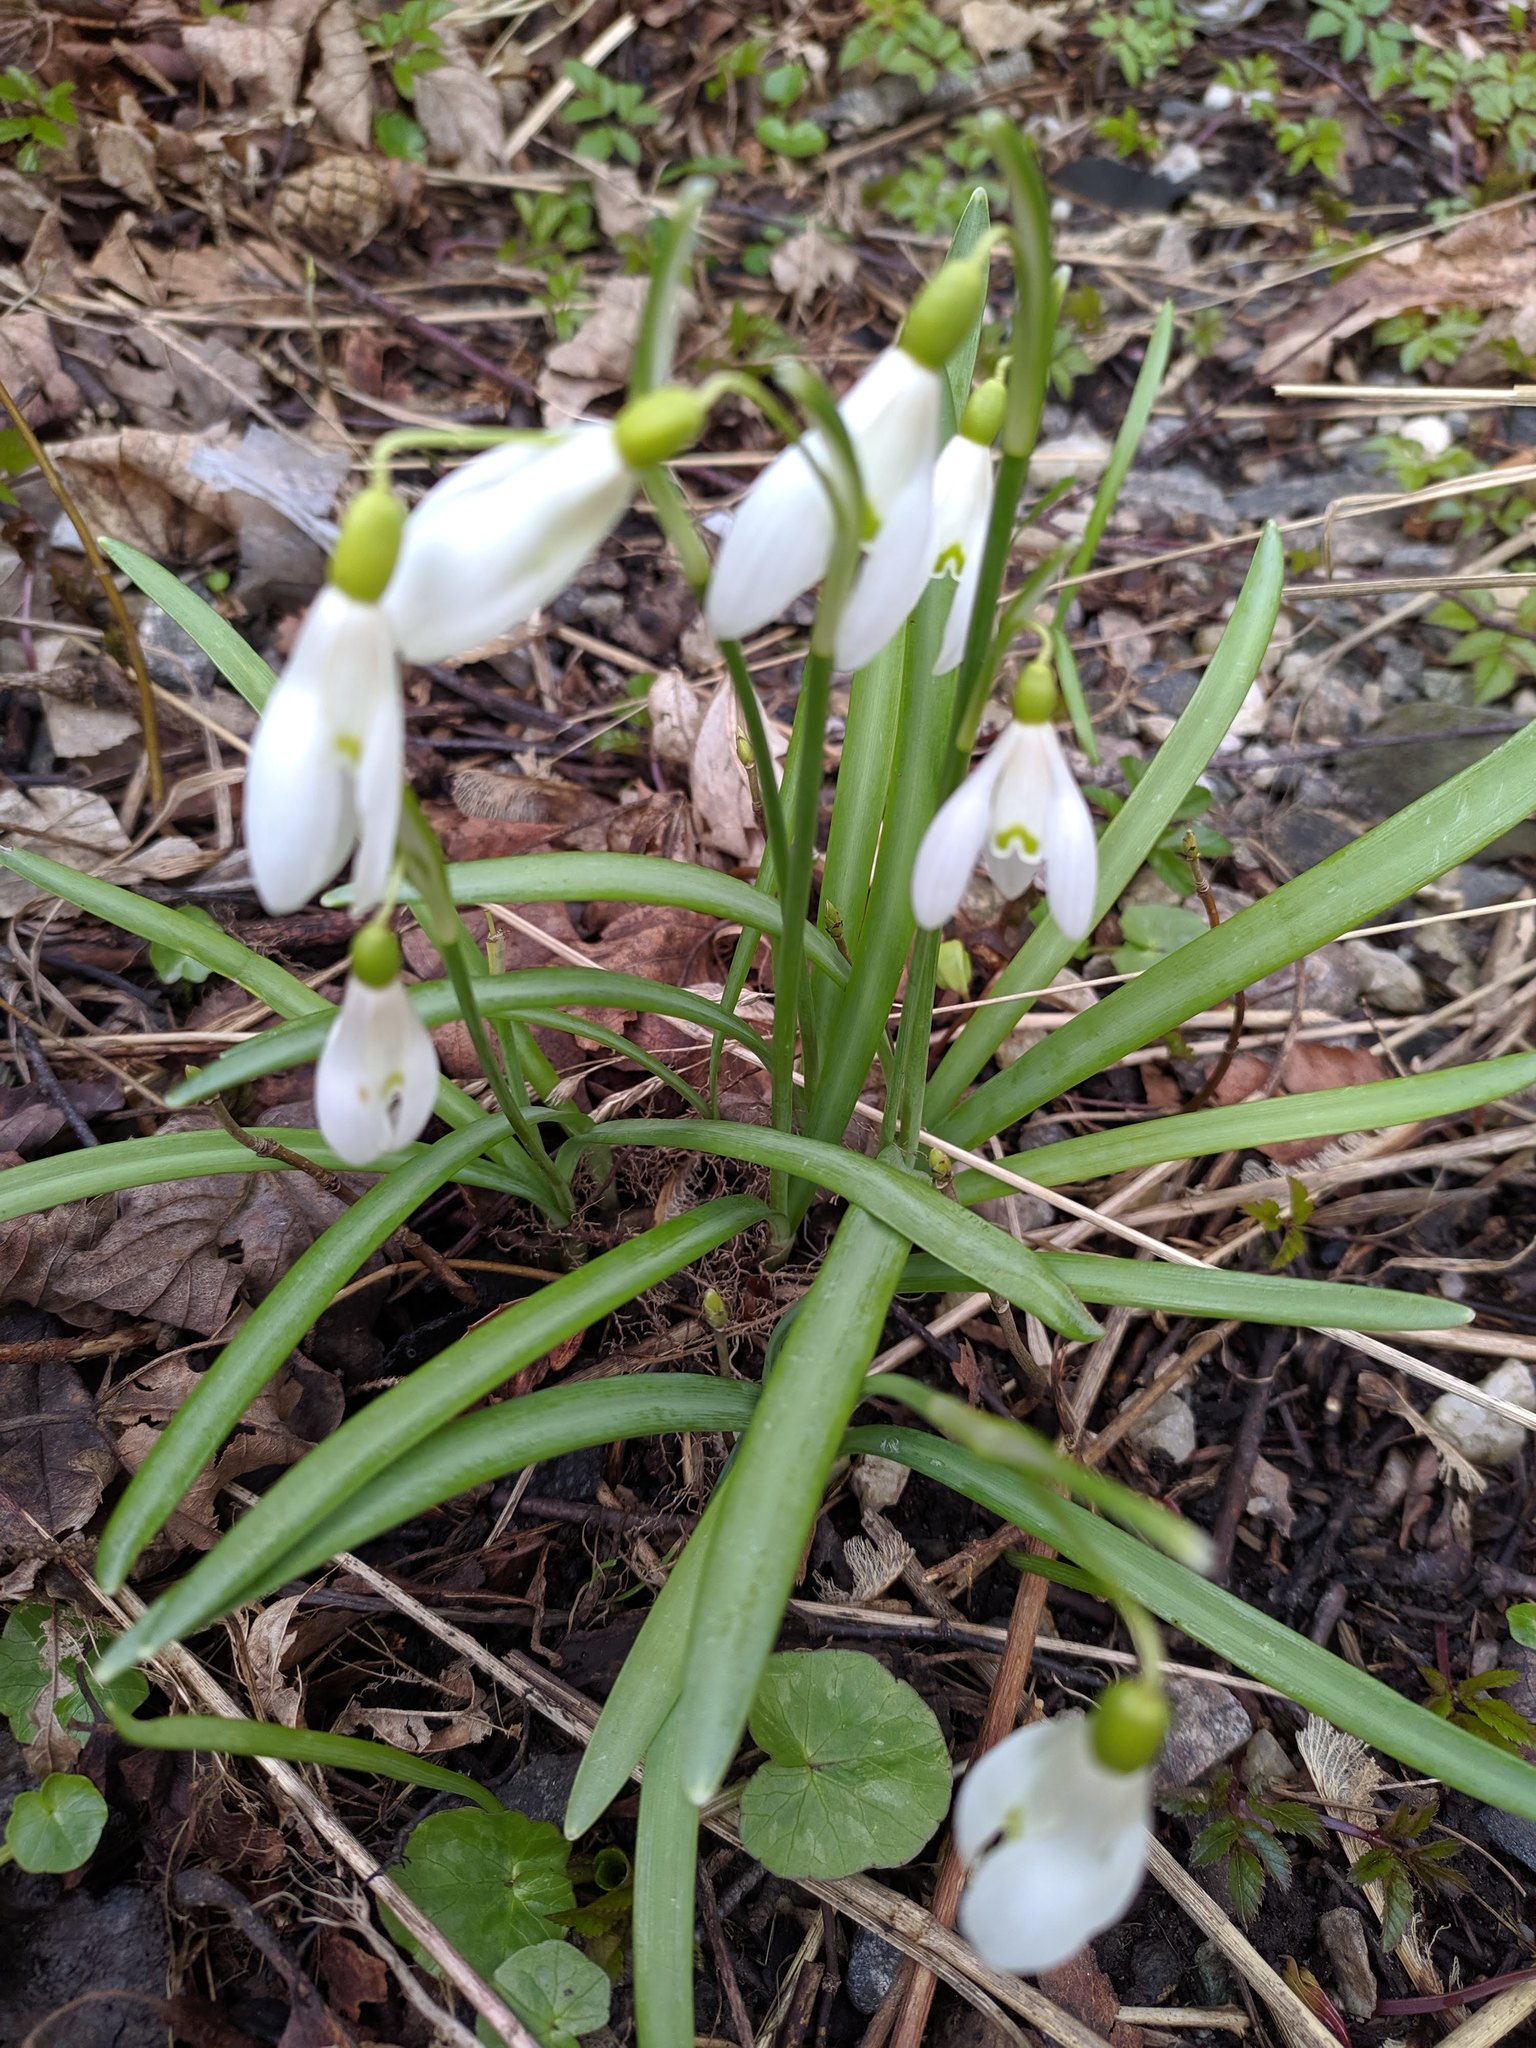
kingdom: Plantae
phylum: Tracheophyta
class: Liliopsida
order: Asparagales
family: Amaryllidaceae
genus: Galanthus
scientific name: Galanthus nivalis
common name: Snowdrop
